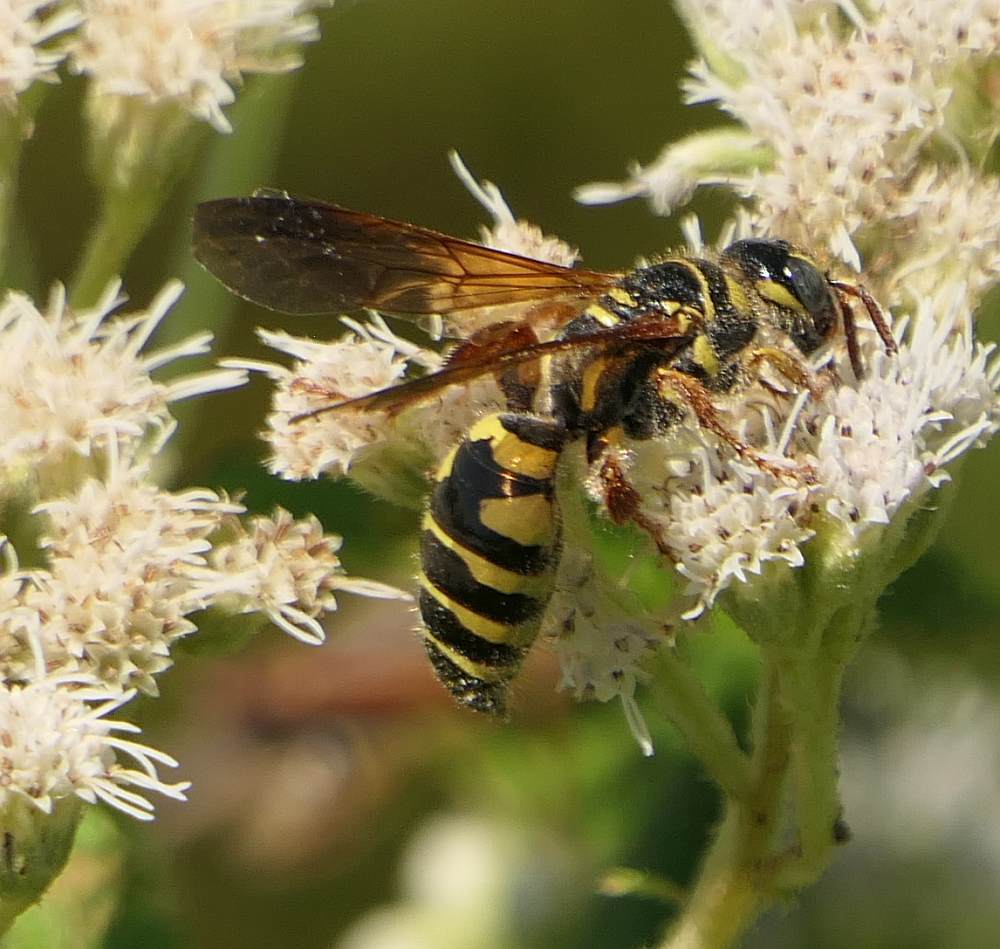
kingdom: Animalia
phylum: Arthropoda
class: Insecta
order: Hymenoptera
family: Tiphiidae
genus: Myzinum
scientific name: Myzinum quinquecinctum
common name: Five-banded thynnid wasp
